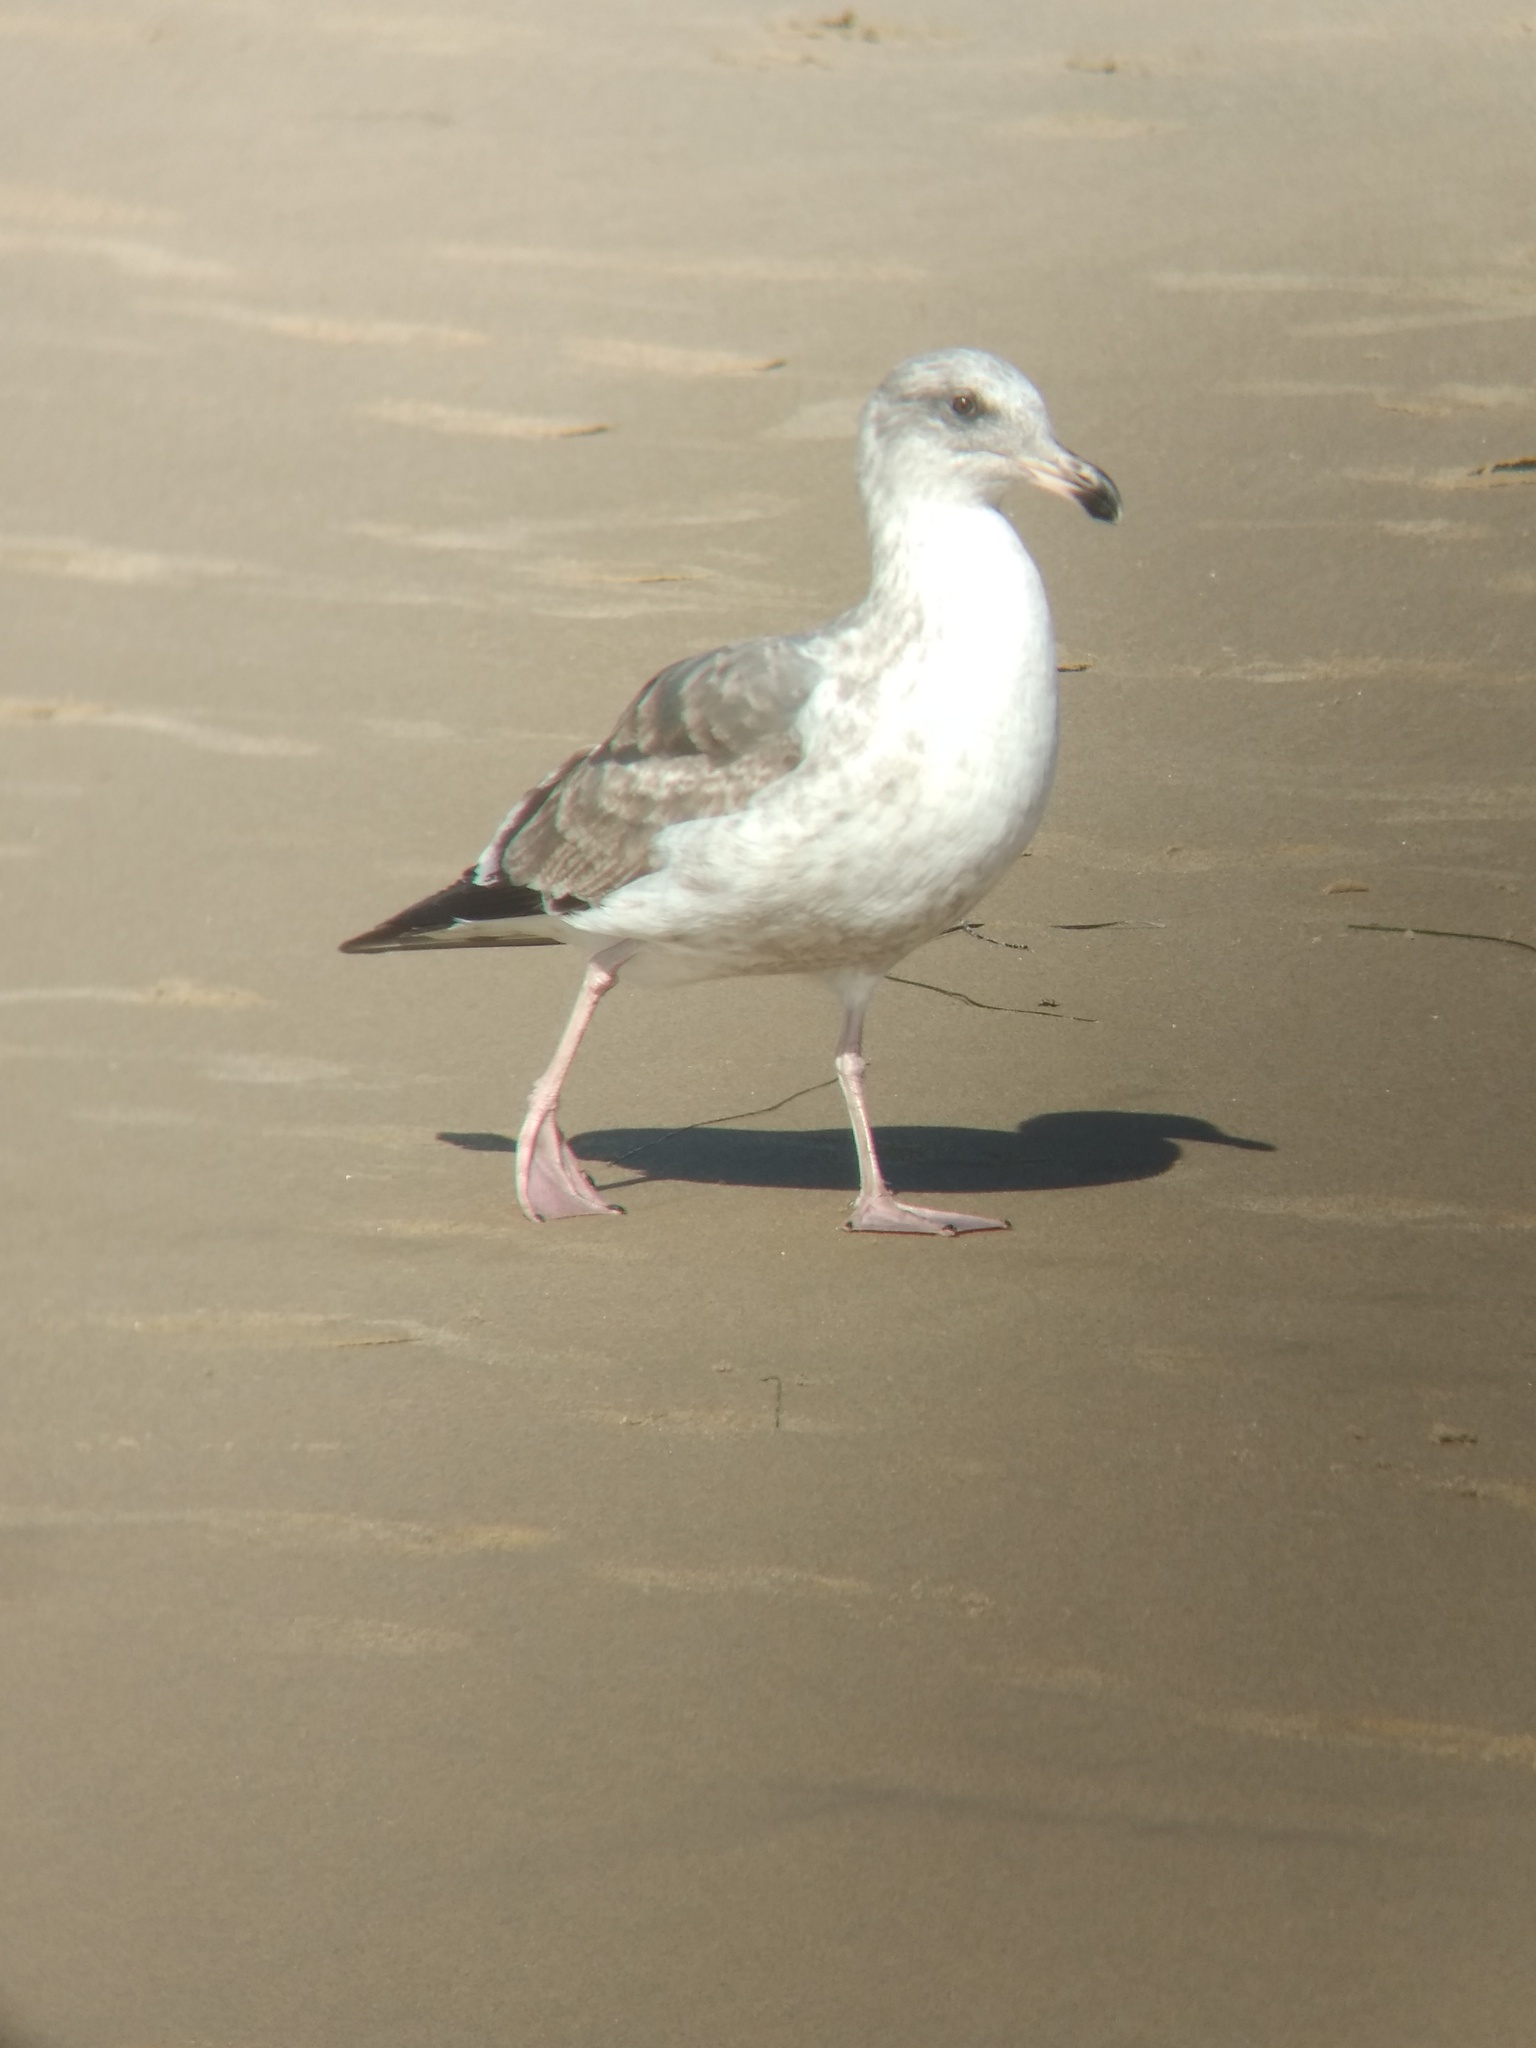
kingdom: Animalia
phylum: Chordata
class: Aves
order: Charadriiformes
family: Laridae
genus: Larus
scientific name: Larus occidentalis
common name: Western gull
